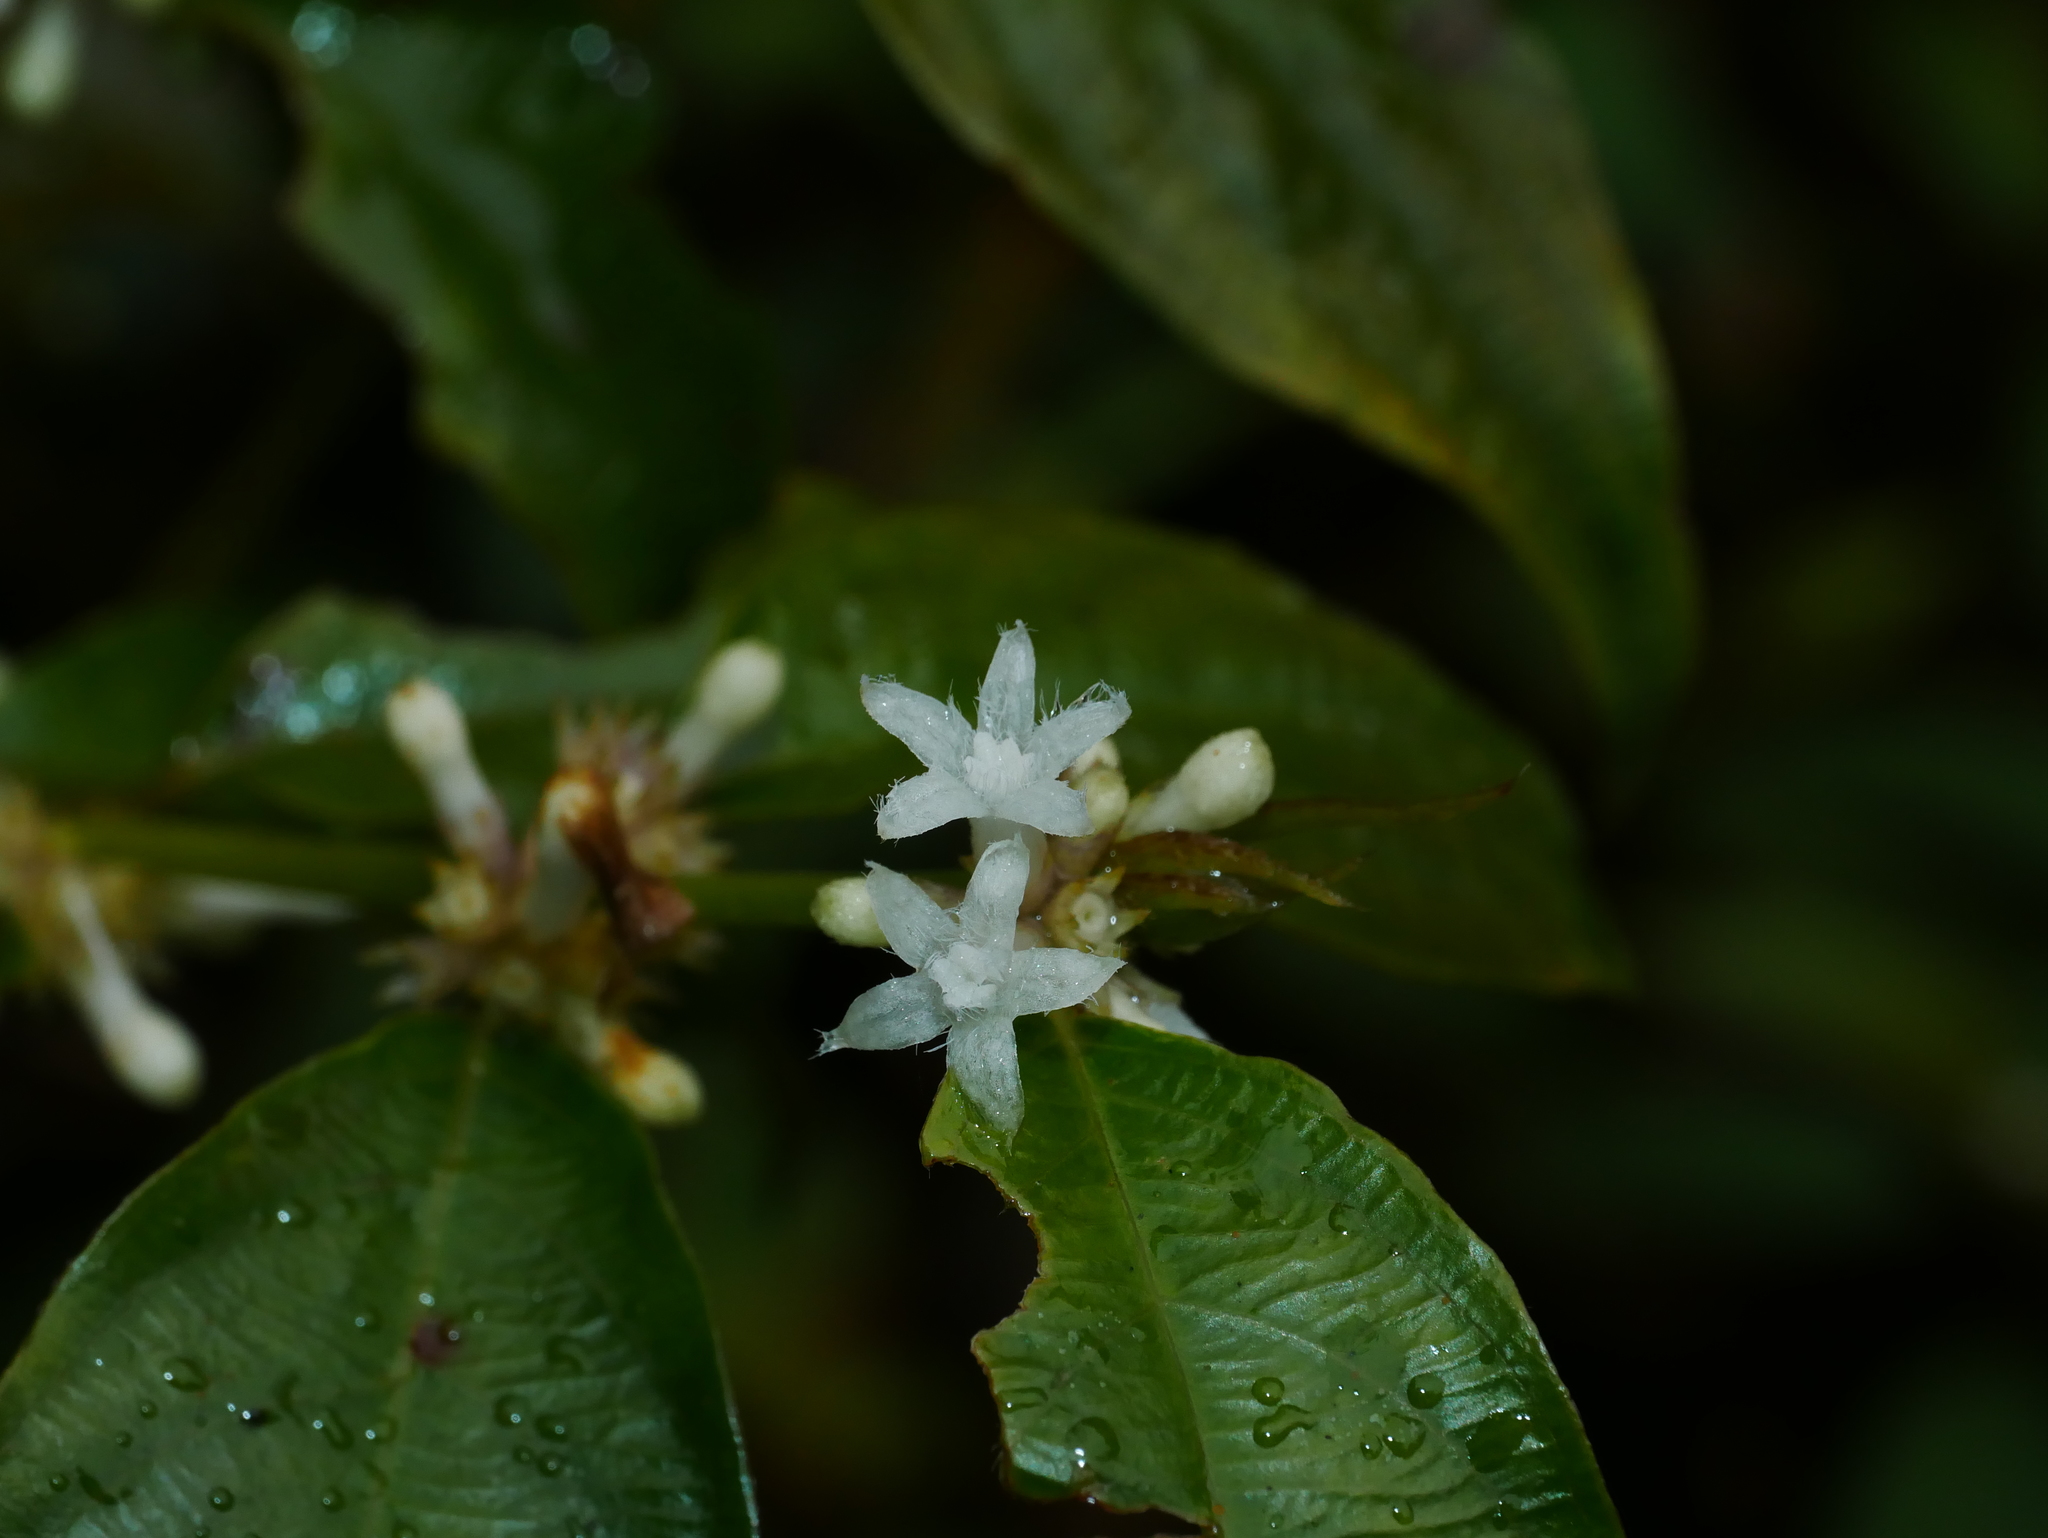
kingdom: Plantae
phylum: Tracheophyta
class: Magnoliopsida
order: Gentianales
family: Rubiaceae
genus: Lasianthus
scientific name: Lasianthus japonicus
